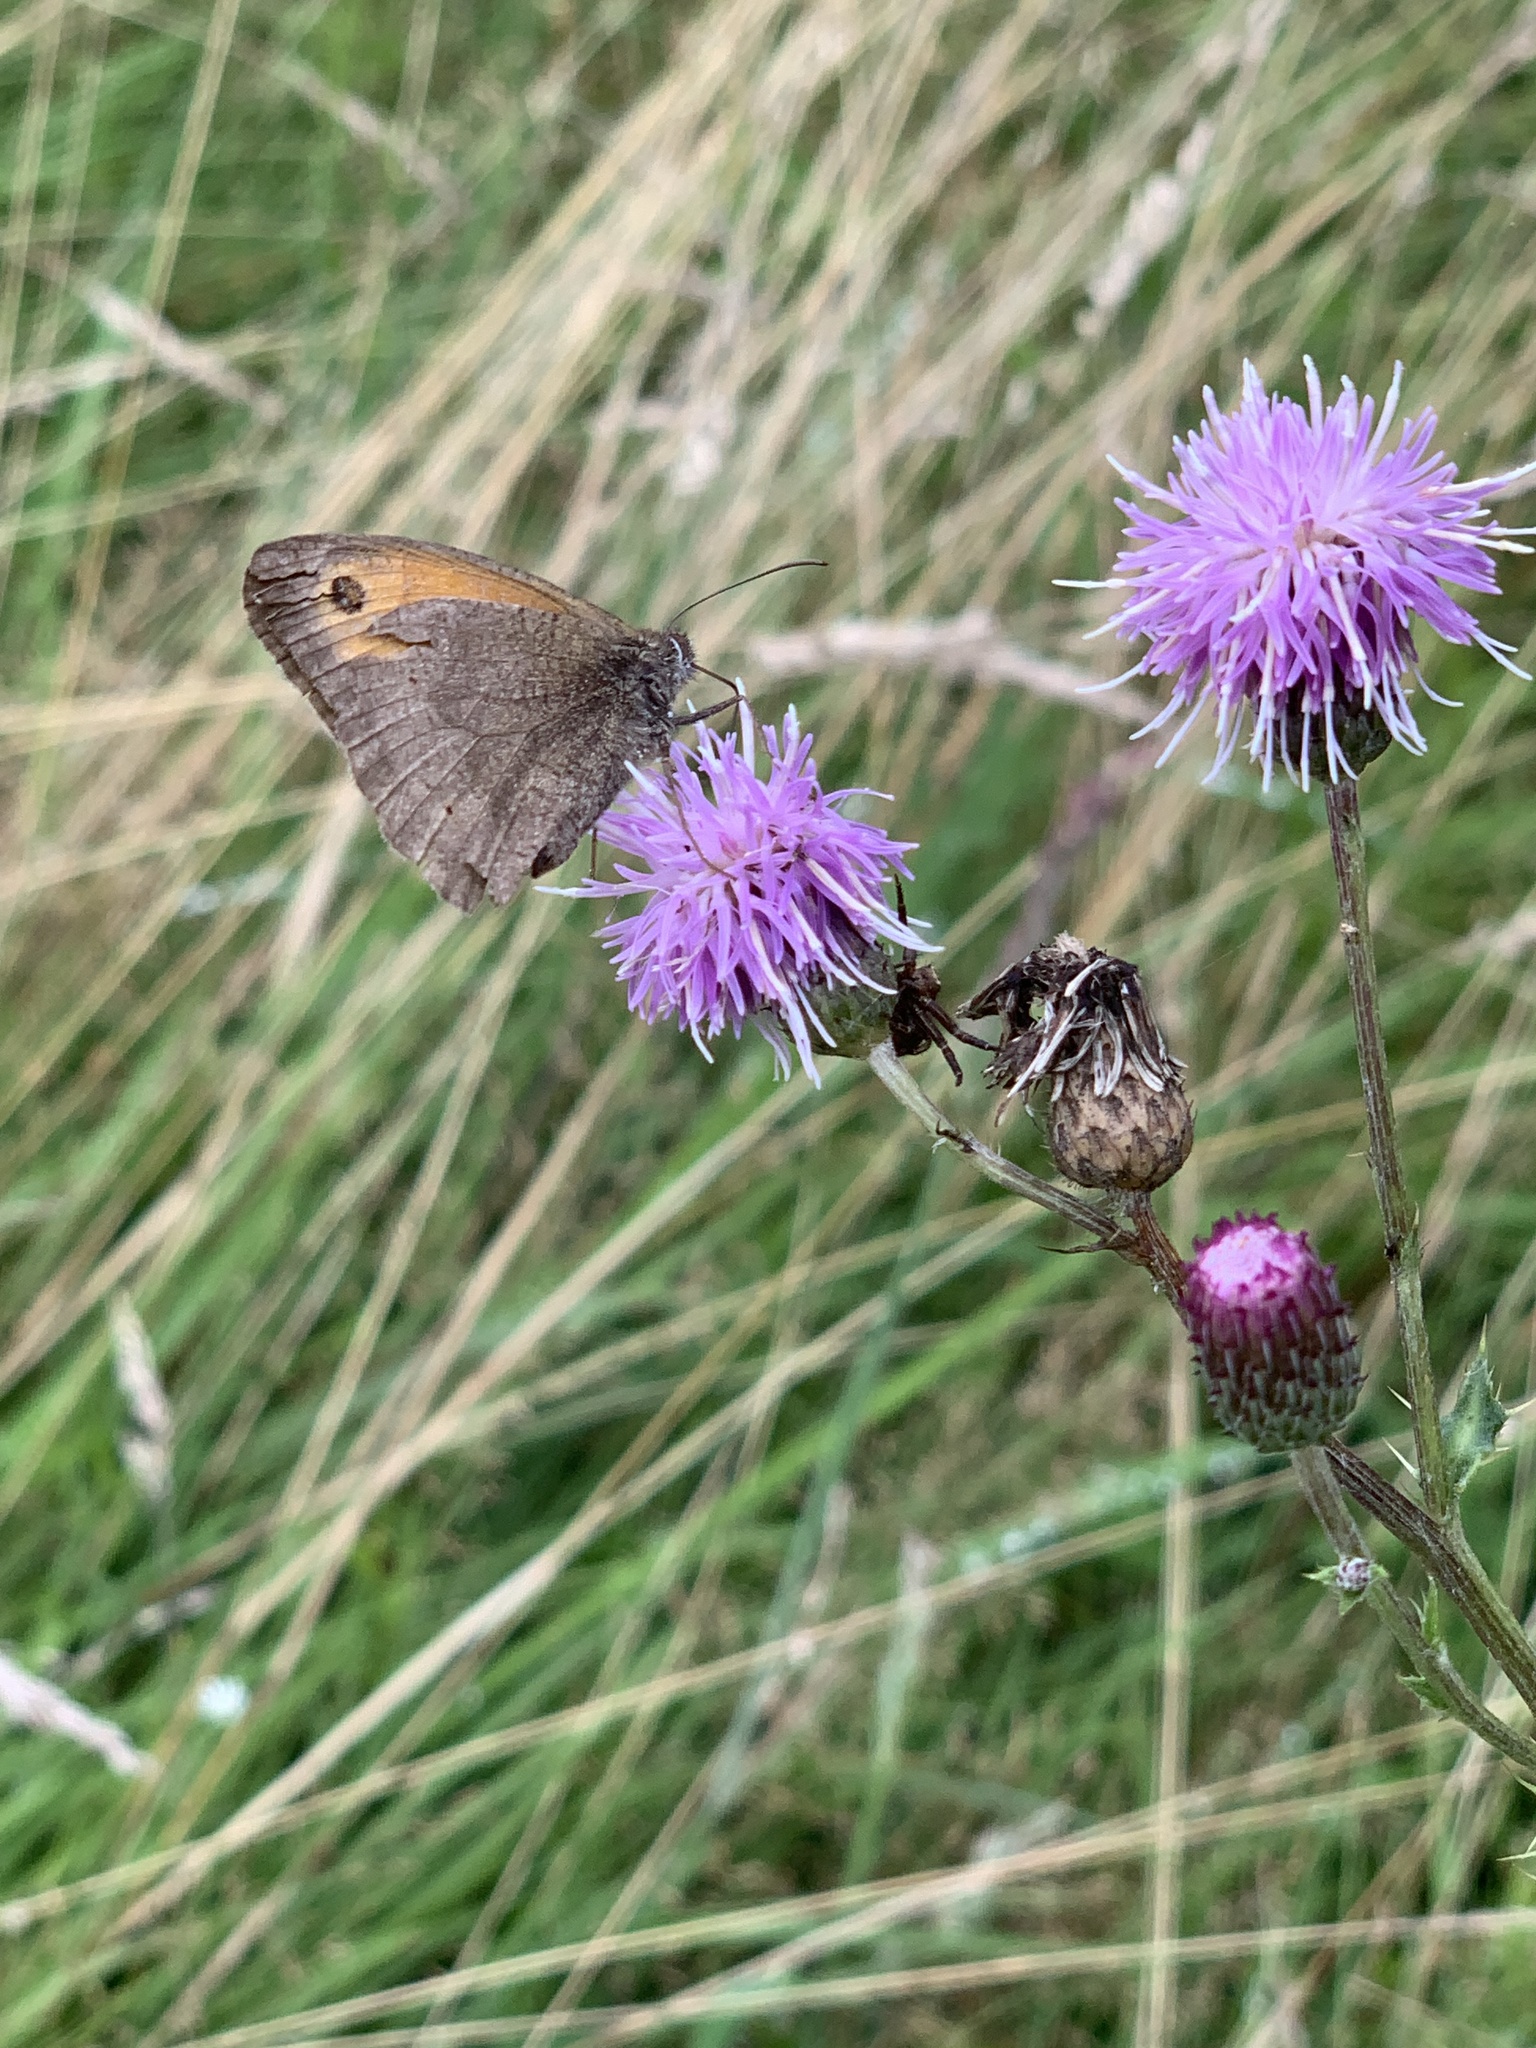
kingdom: Animalia
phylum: Arthropoda
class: Insecta
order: Lepidoptera
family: Nymphalidae
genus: Maniola
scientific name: Maniola jurtina
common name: Meadow brown
